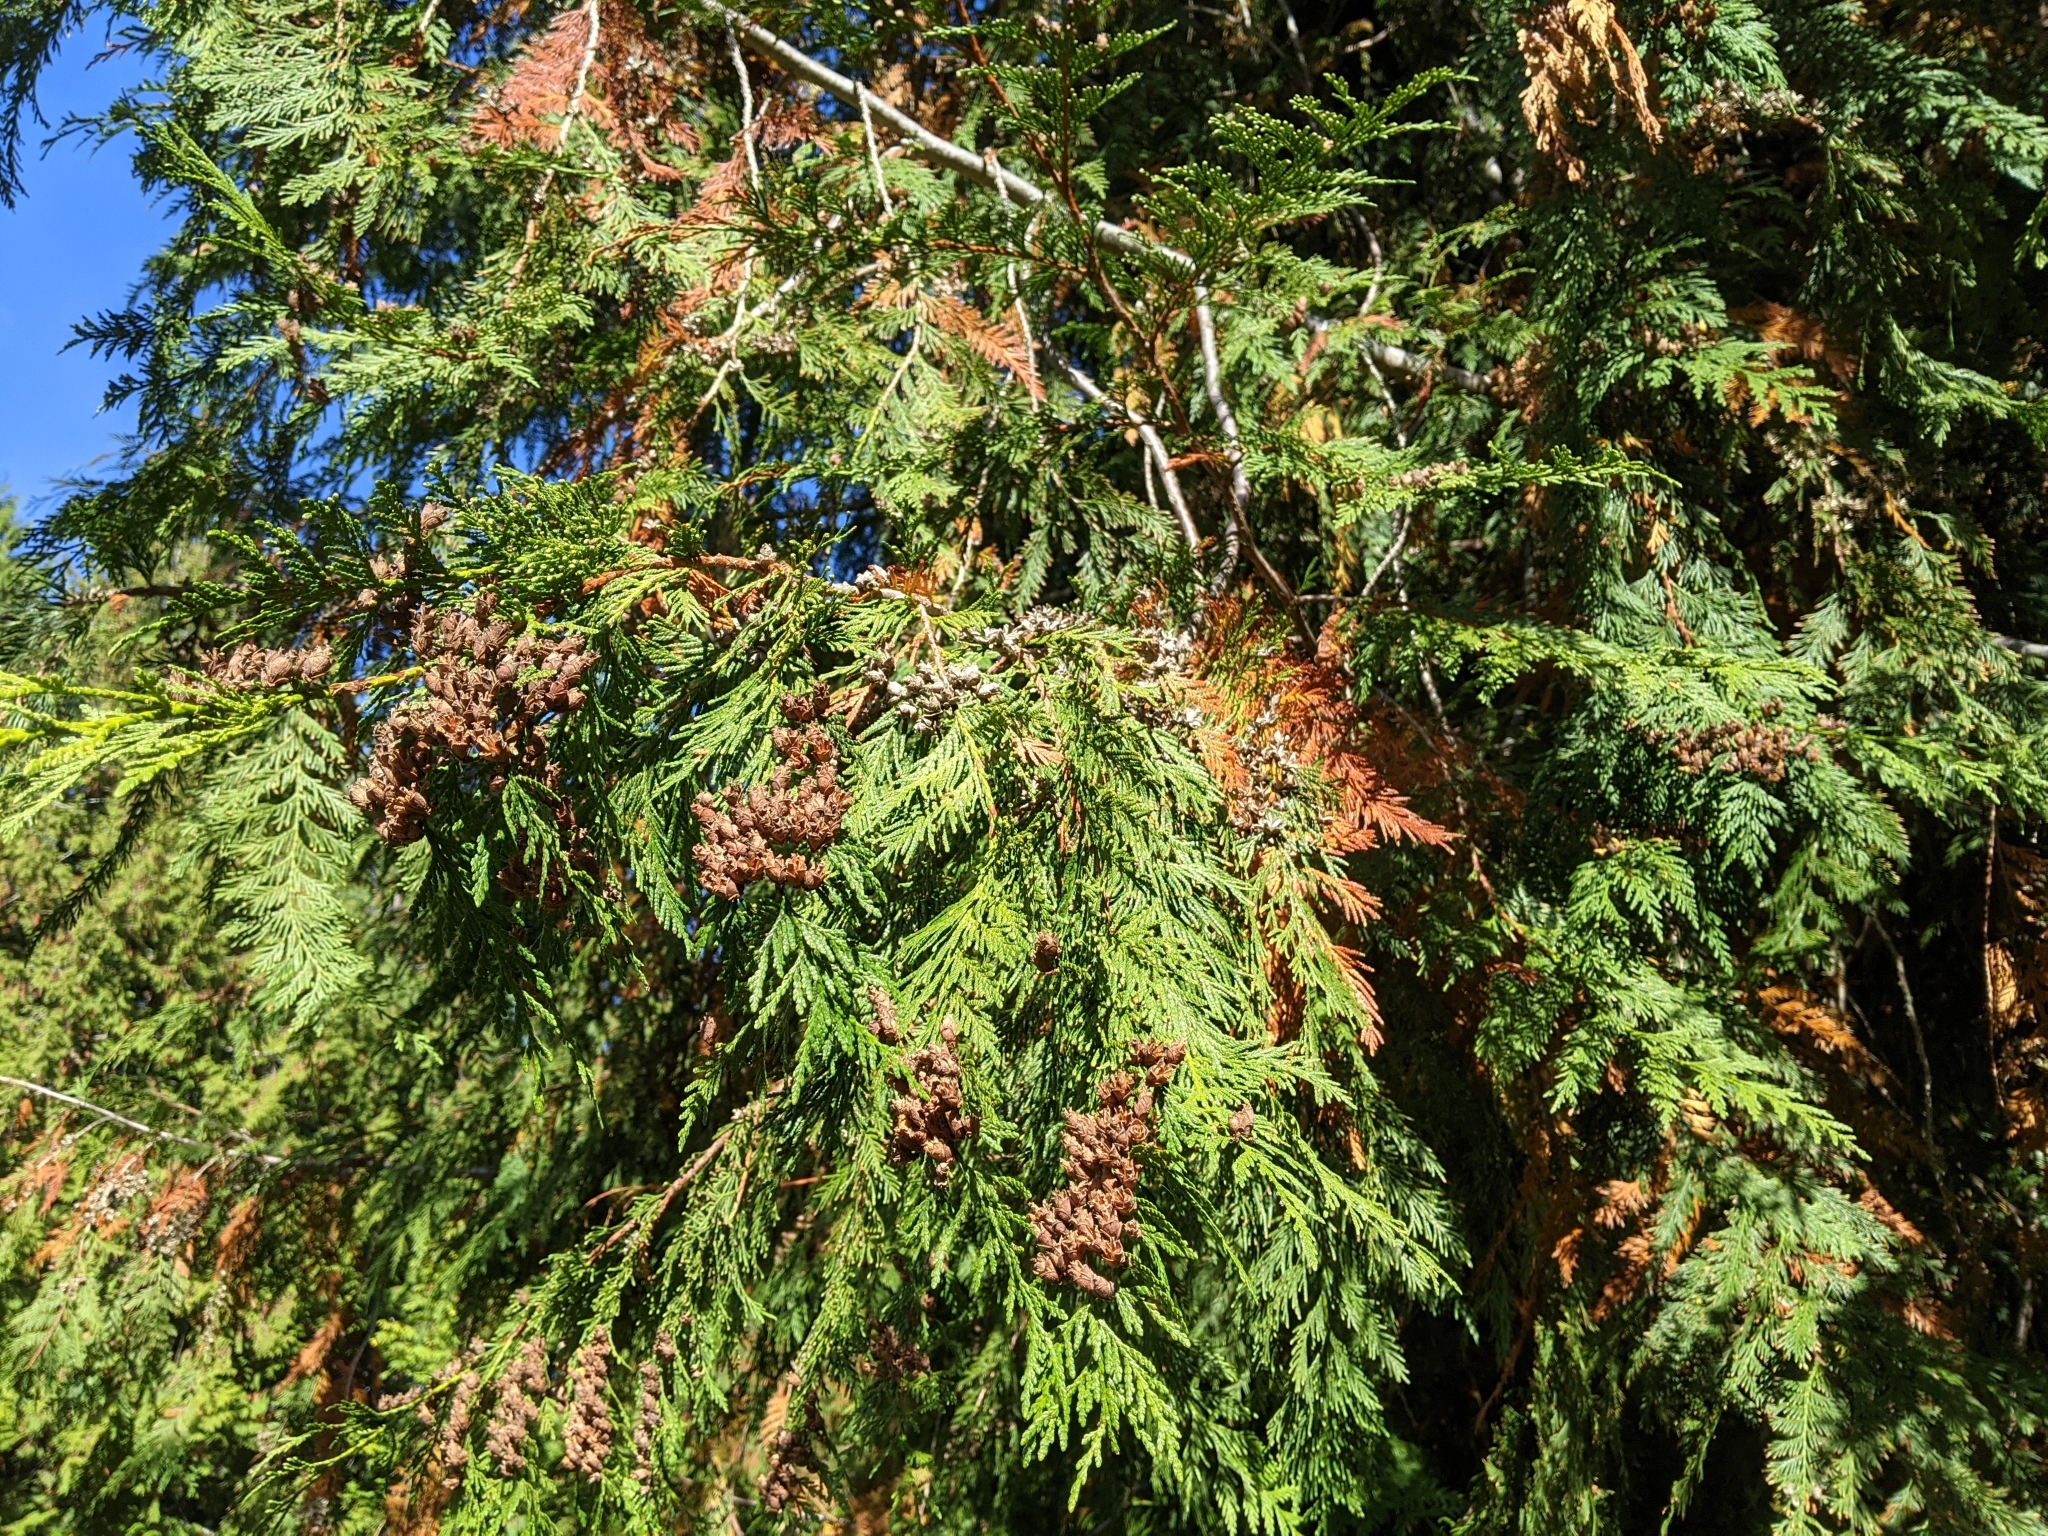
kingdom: Plantae
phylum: Tracheophyta
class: Pinopsida
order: Pinales
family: Cupressaceae
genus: Thuja
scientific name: Thuja plicata
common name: Western red-cedar
